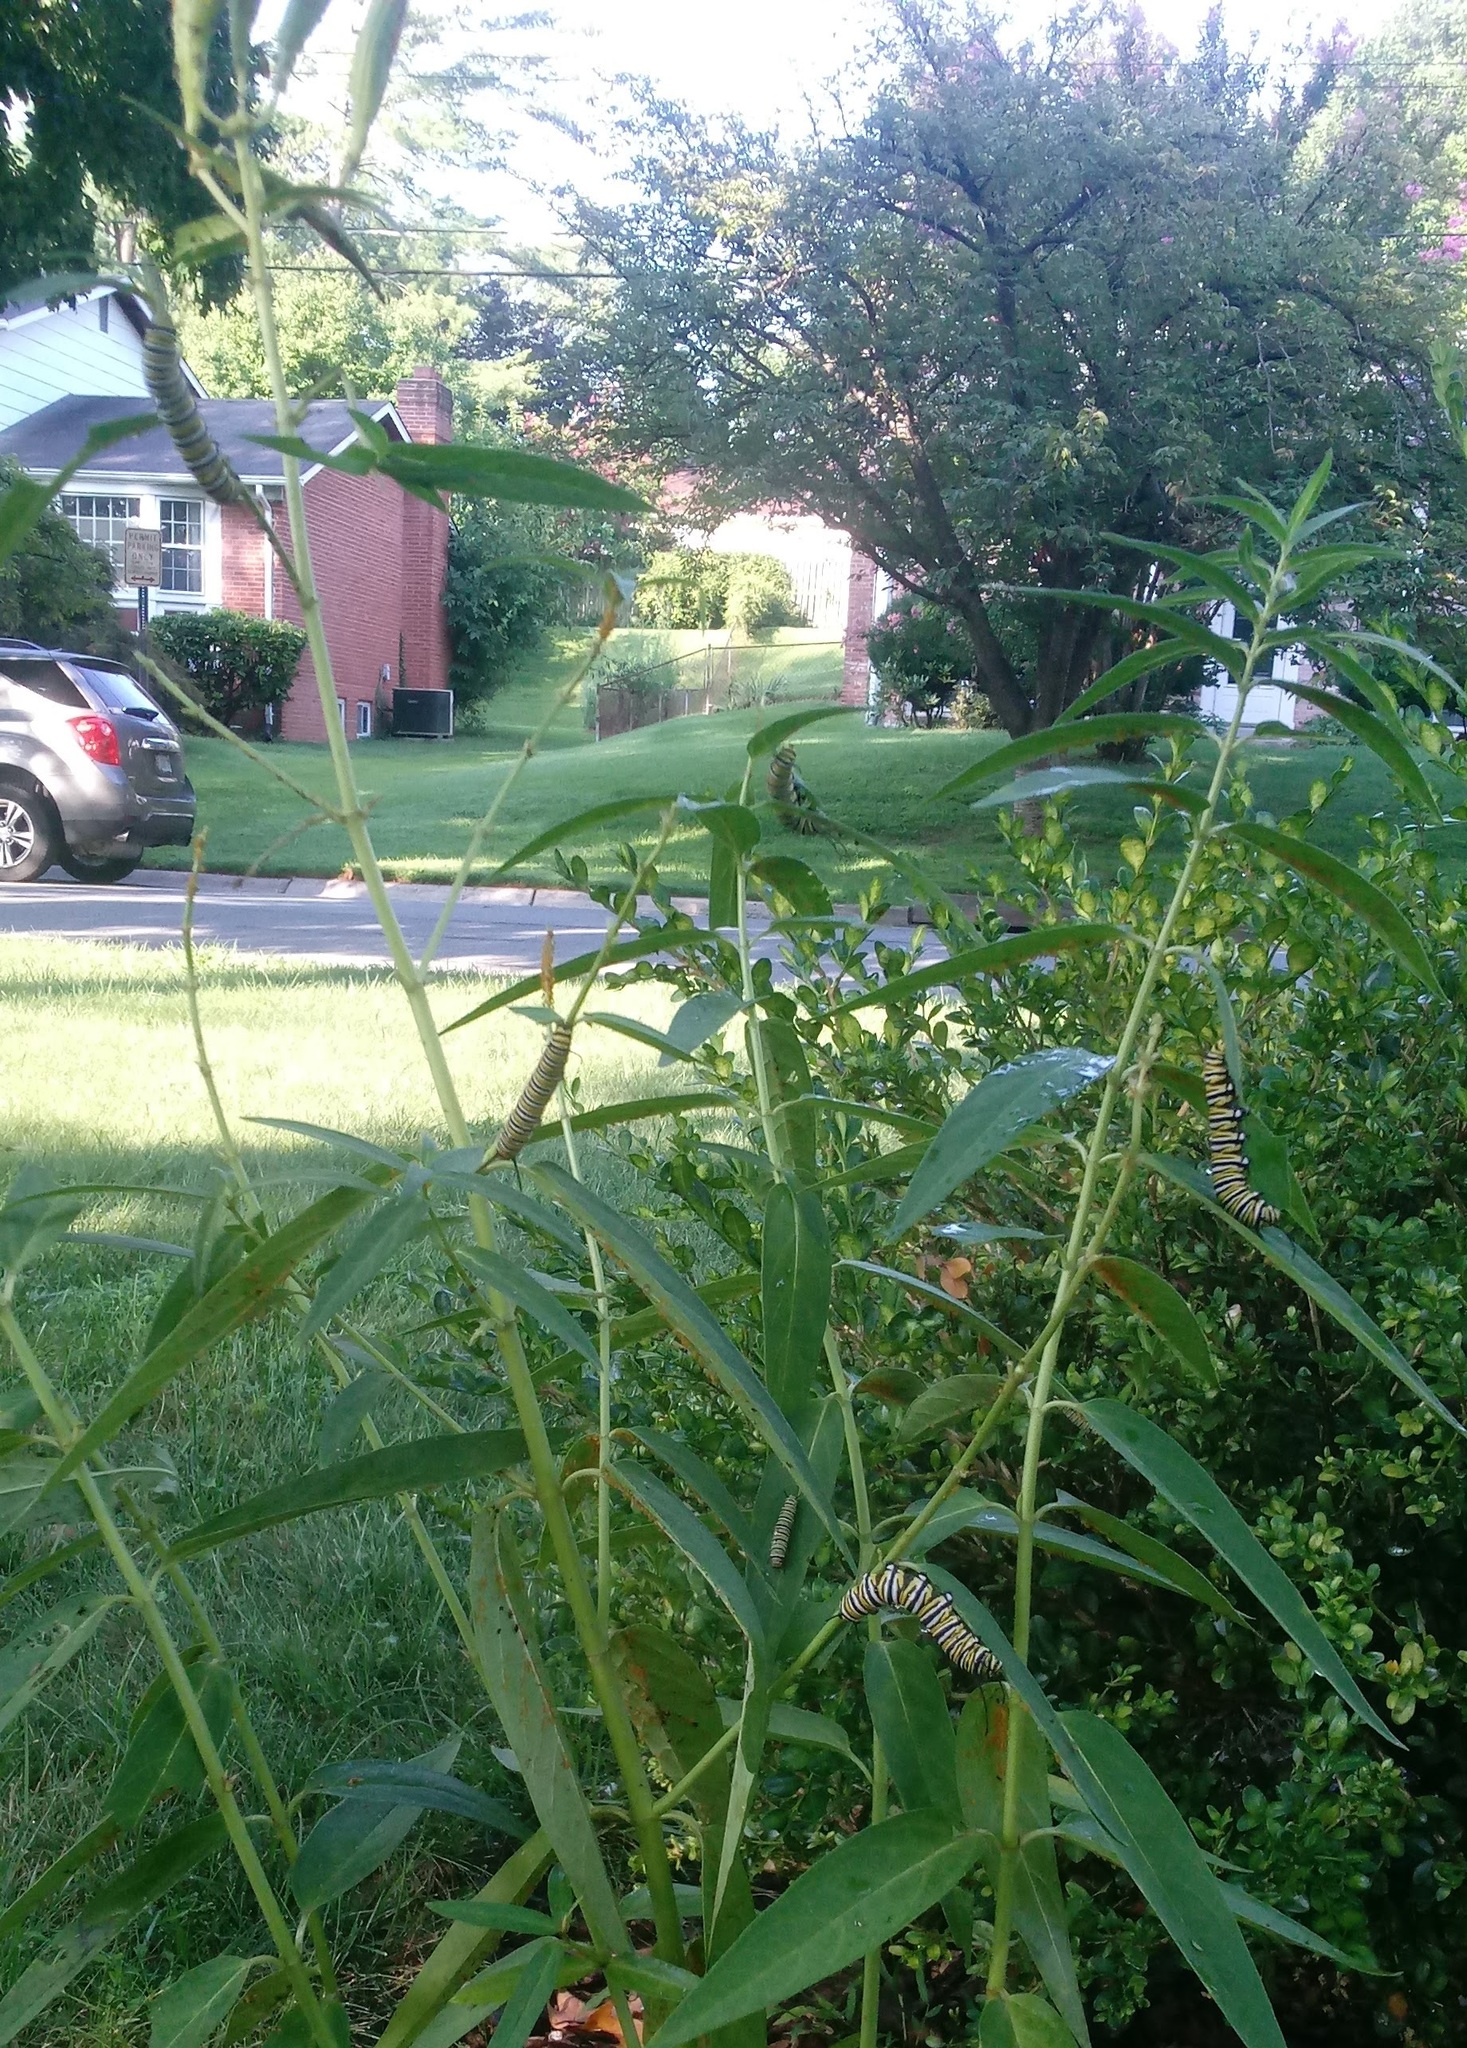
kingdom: Animalia
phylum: Arthropoda
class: Insecta
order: Lepidoptera
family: Nymphalidae
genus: Danaus
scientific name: Danaus plexippus
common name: Monarch
